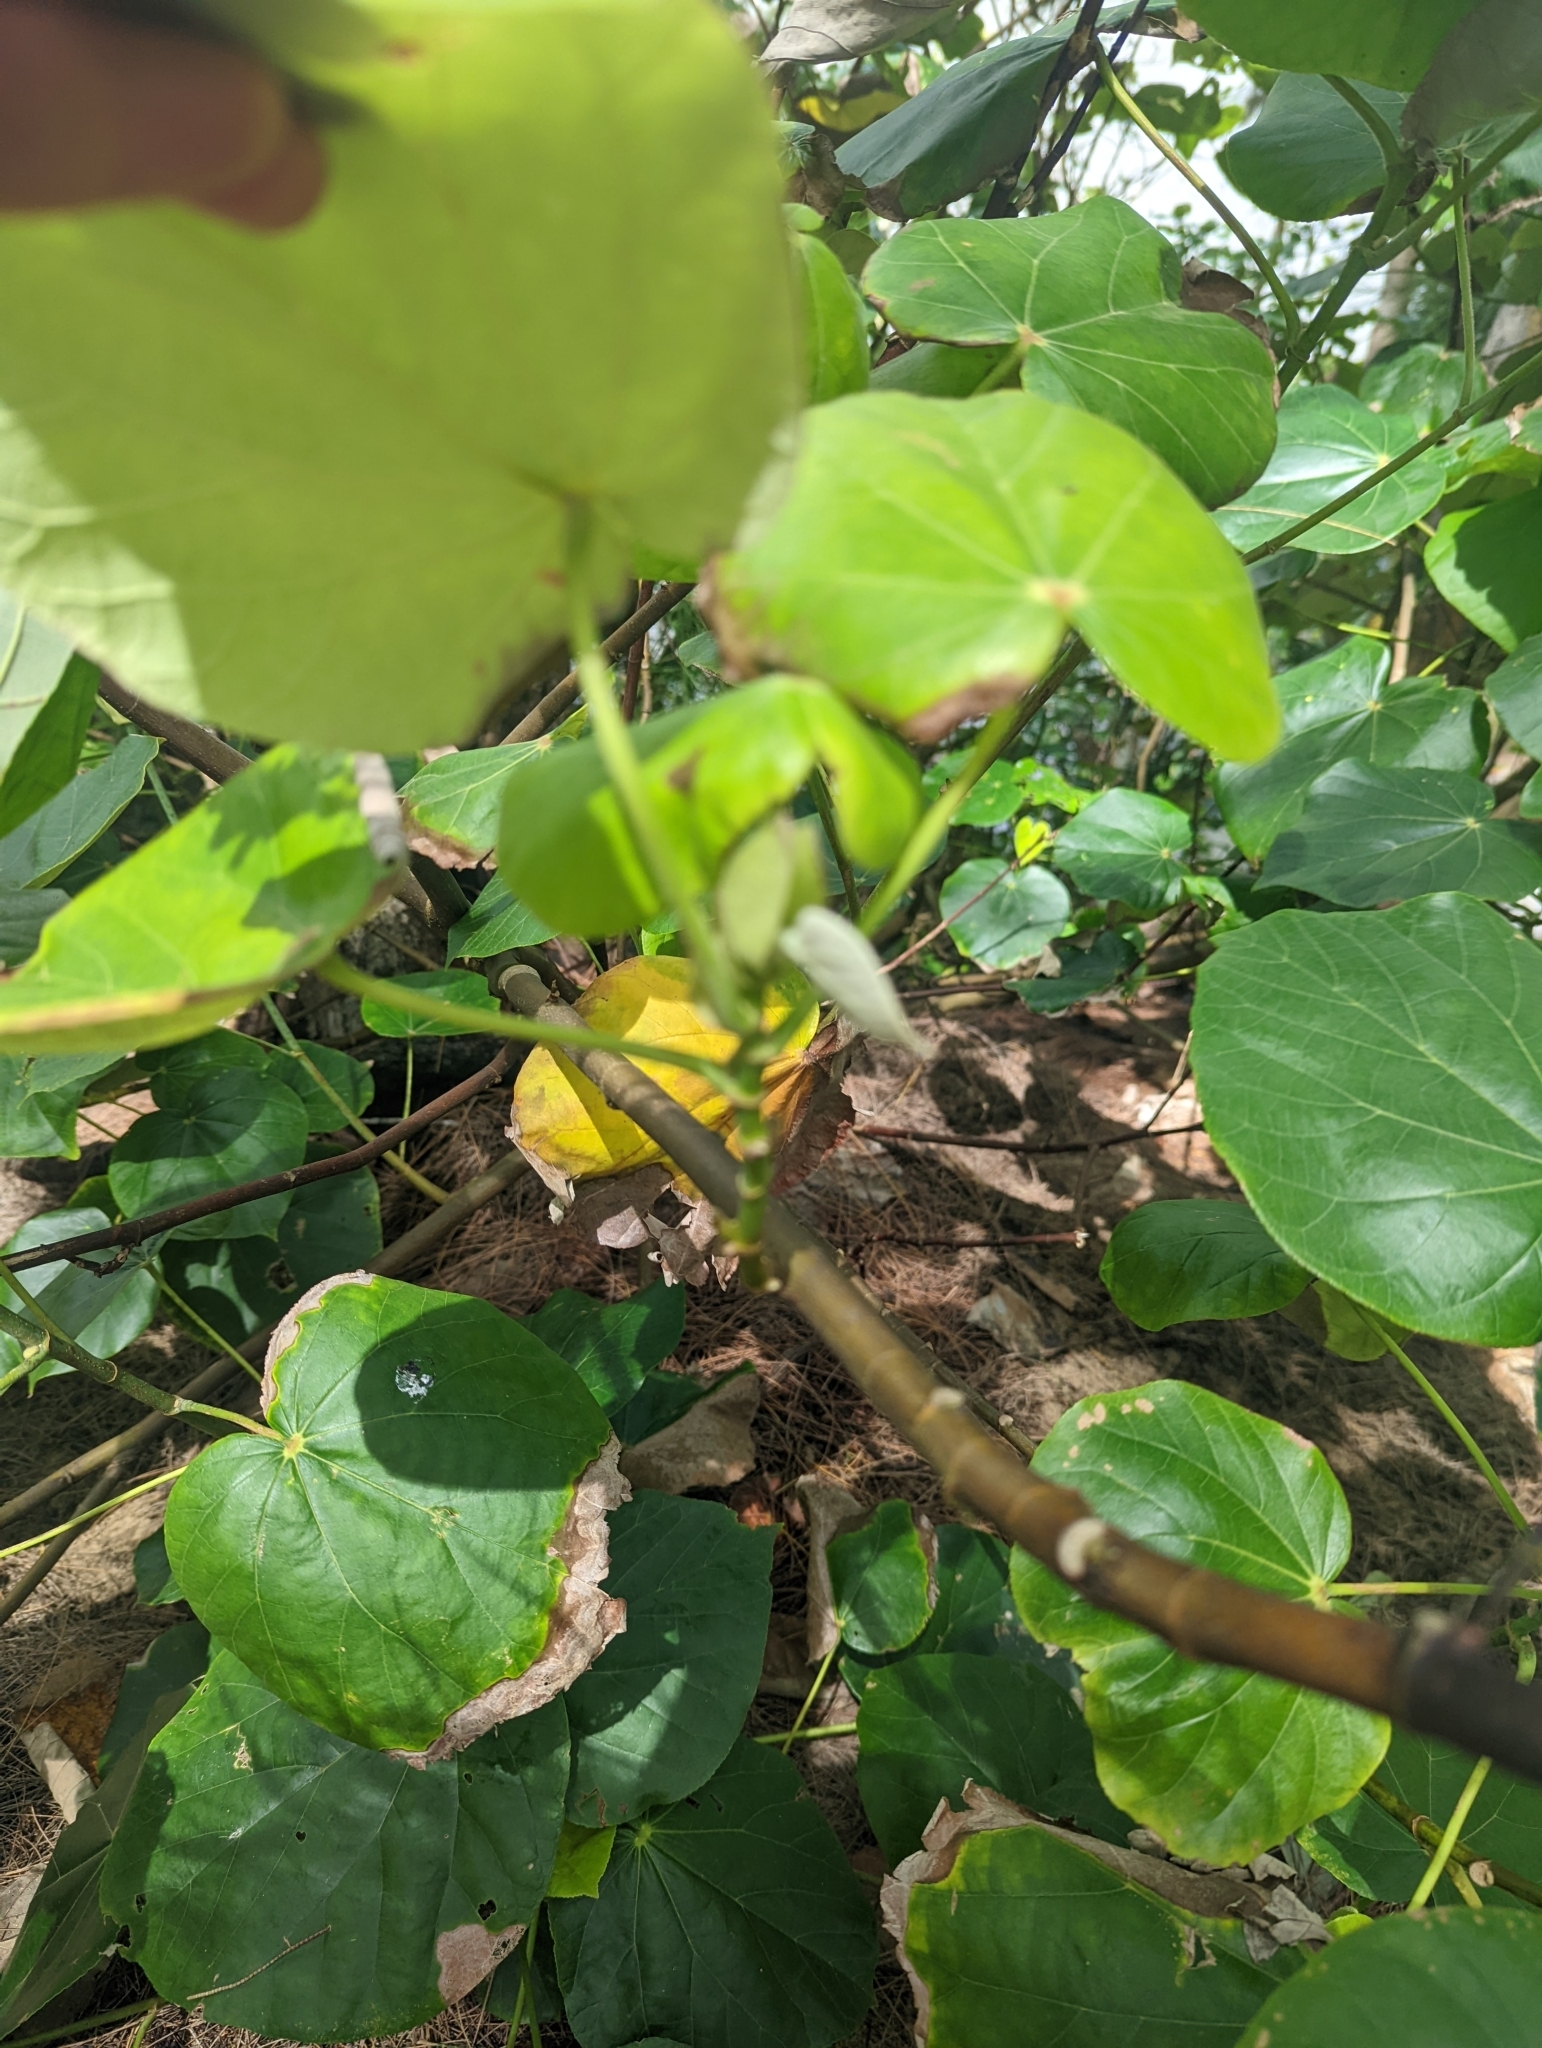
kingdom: Plantae
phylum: Tracheophyta
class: Magnoliopsida
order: Malvales
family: Malvaceae
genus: Talipariti
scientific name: Talipariti tiliaceum
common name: Sea hibiscus
